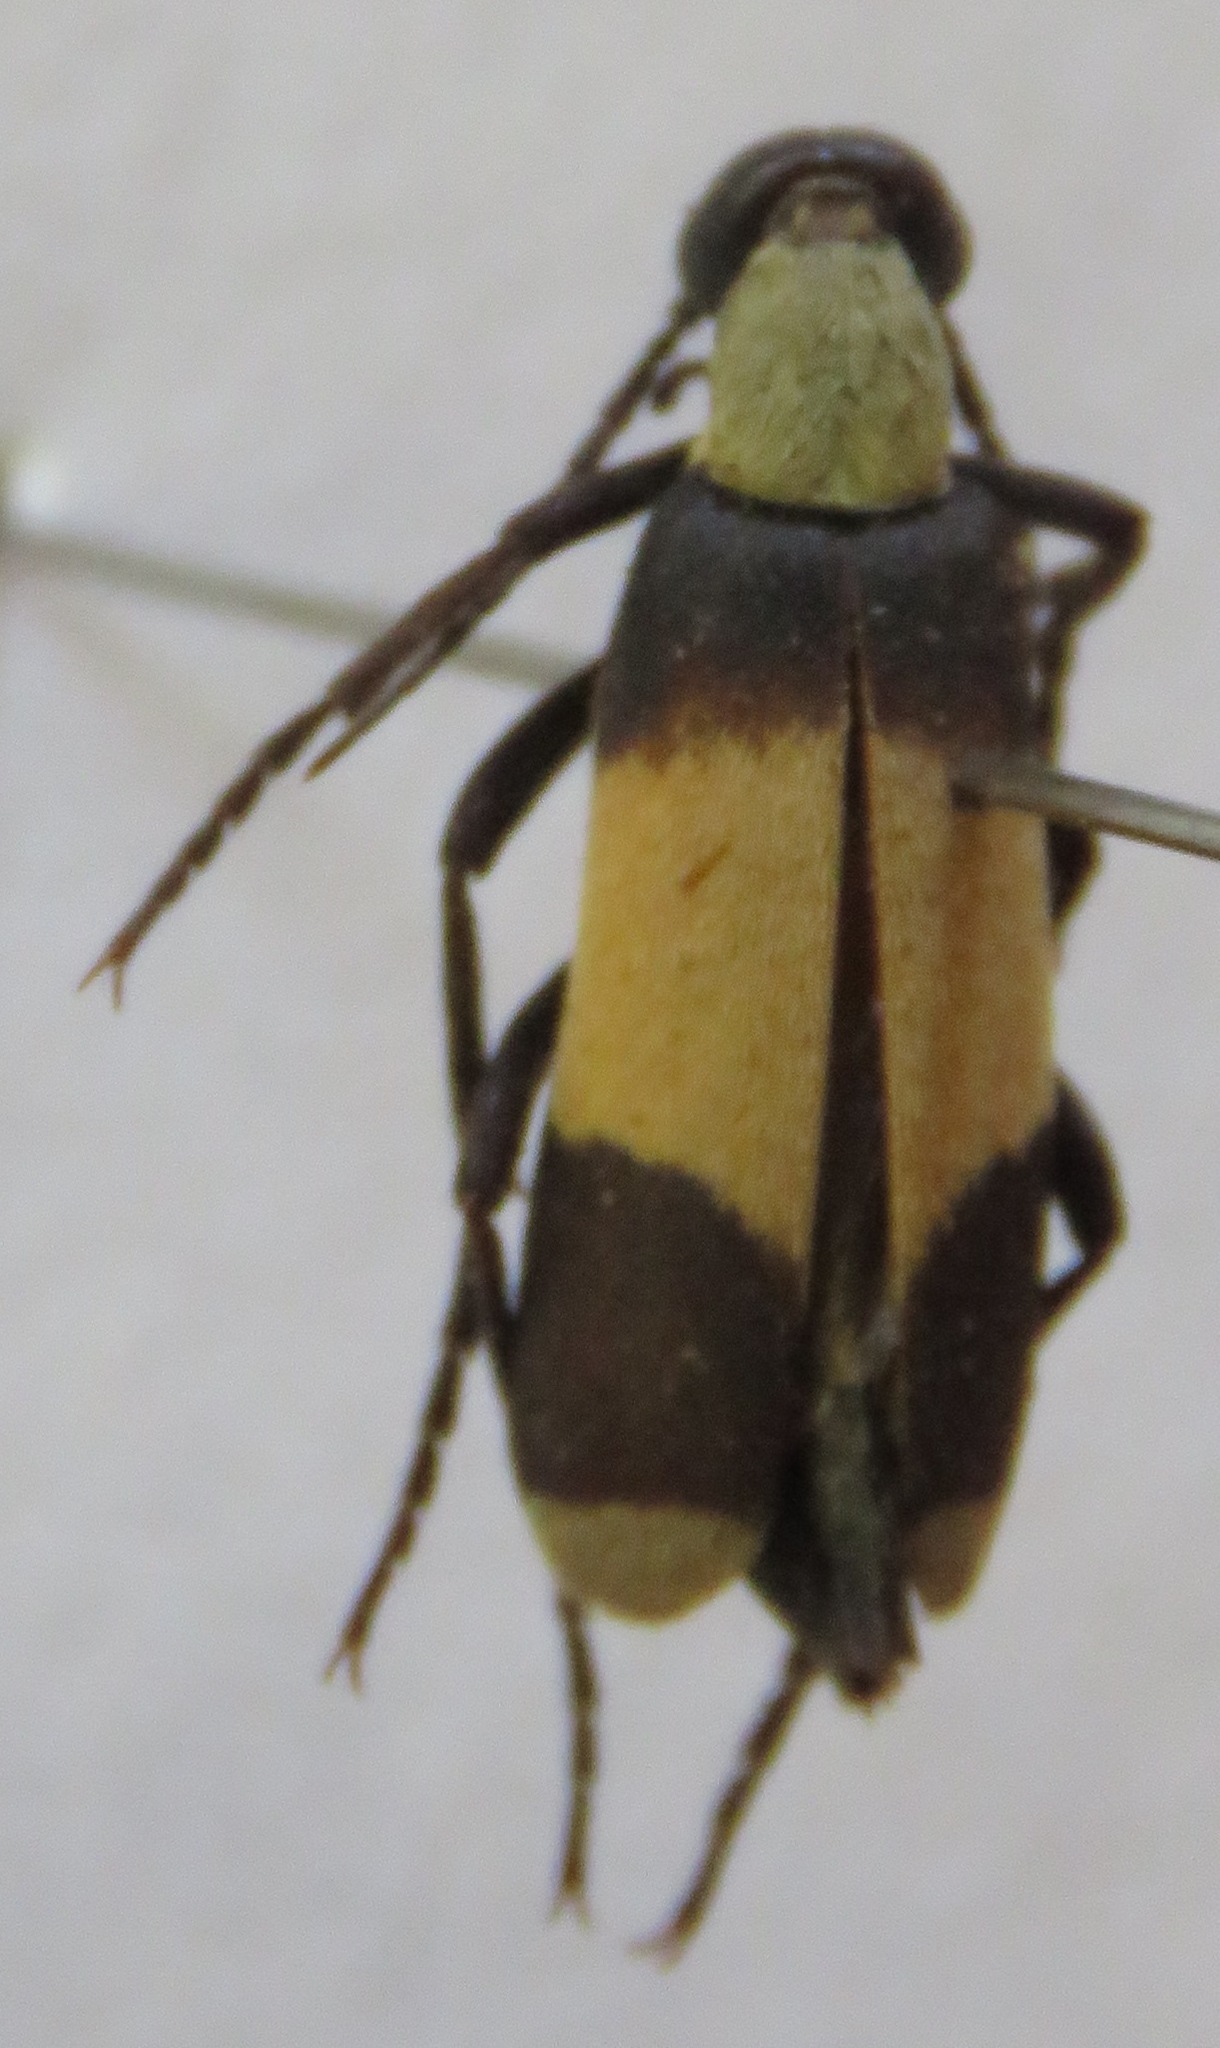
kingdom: Animalia
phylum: Arthropoda
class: Insecta
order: Coleoptera
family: Meloidae
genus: Epicauta
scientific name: Epicauta haroldi
